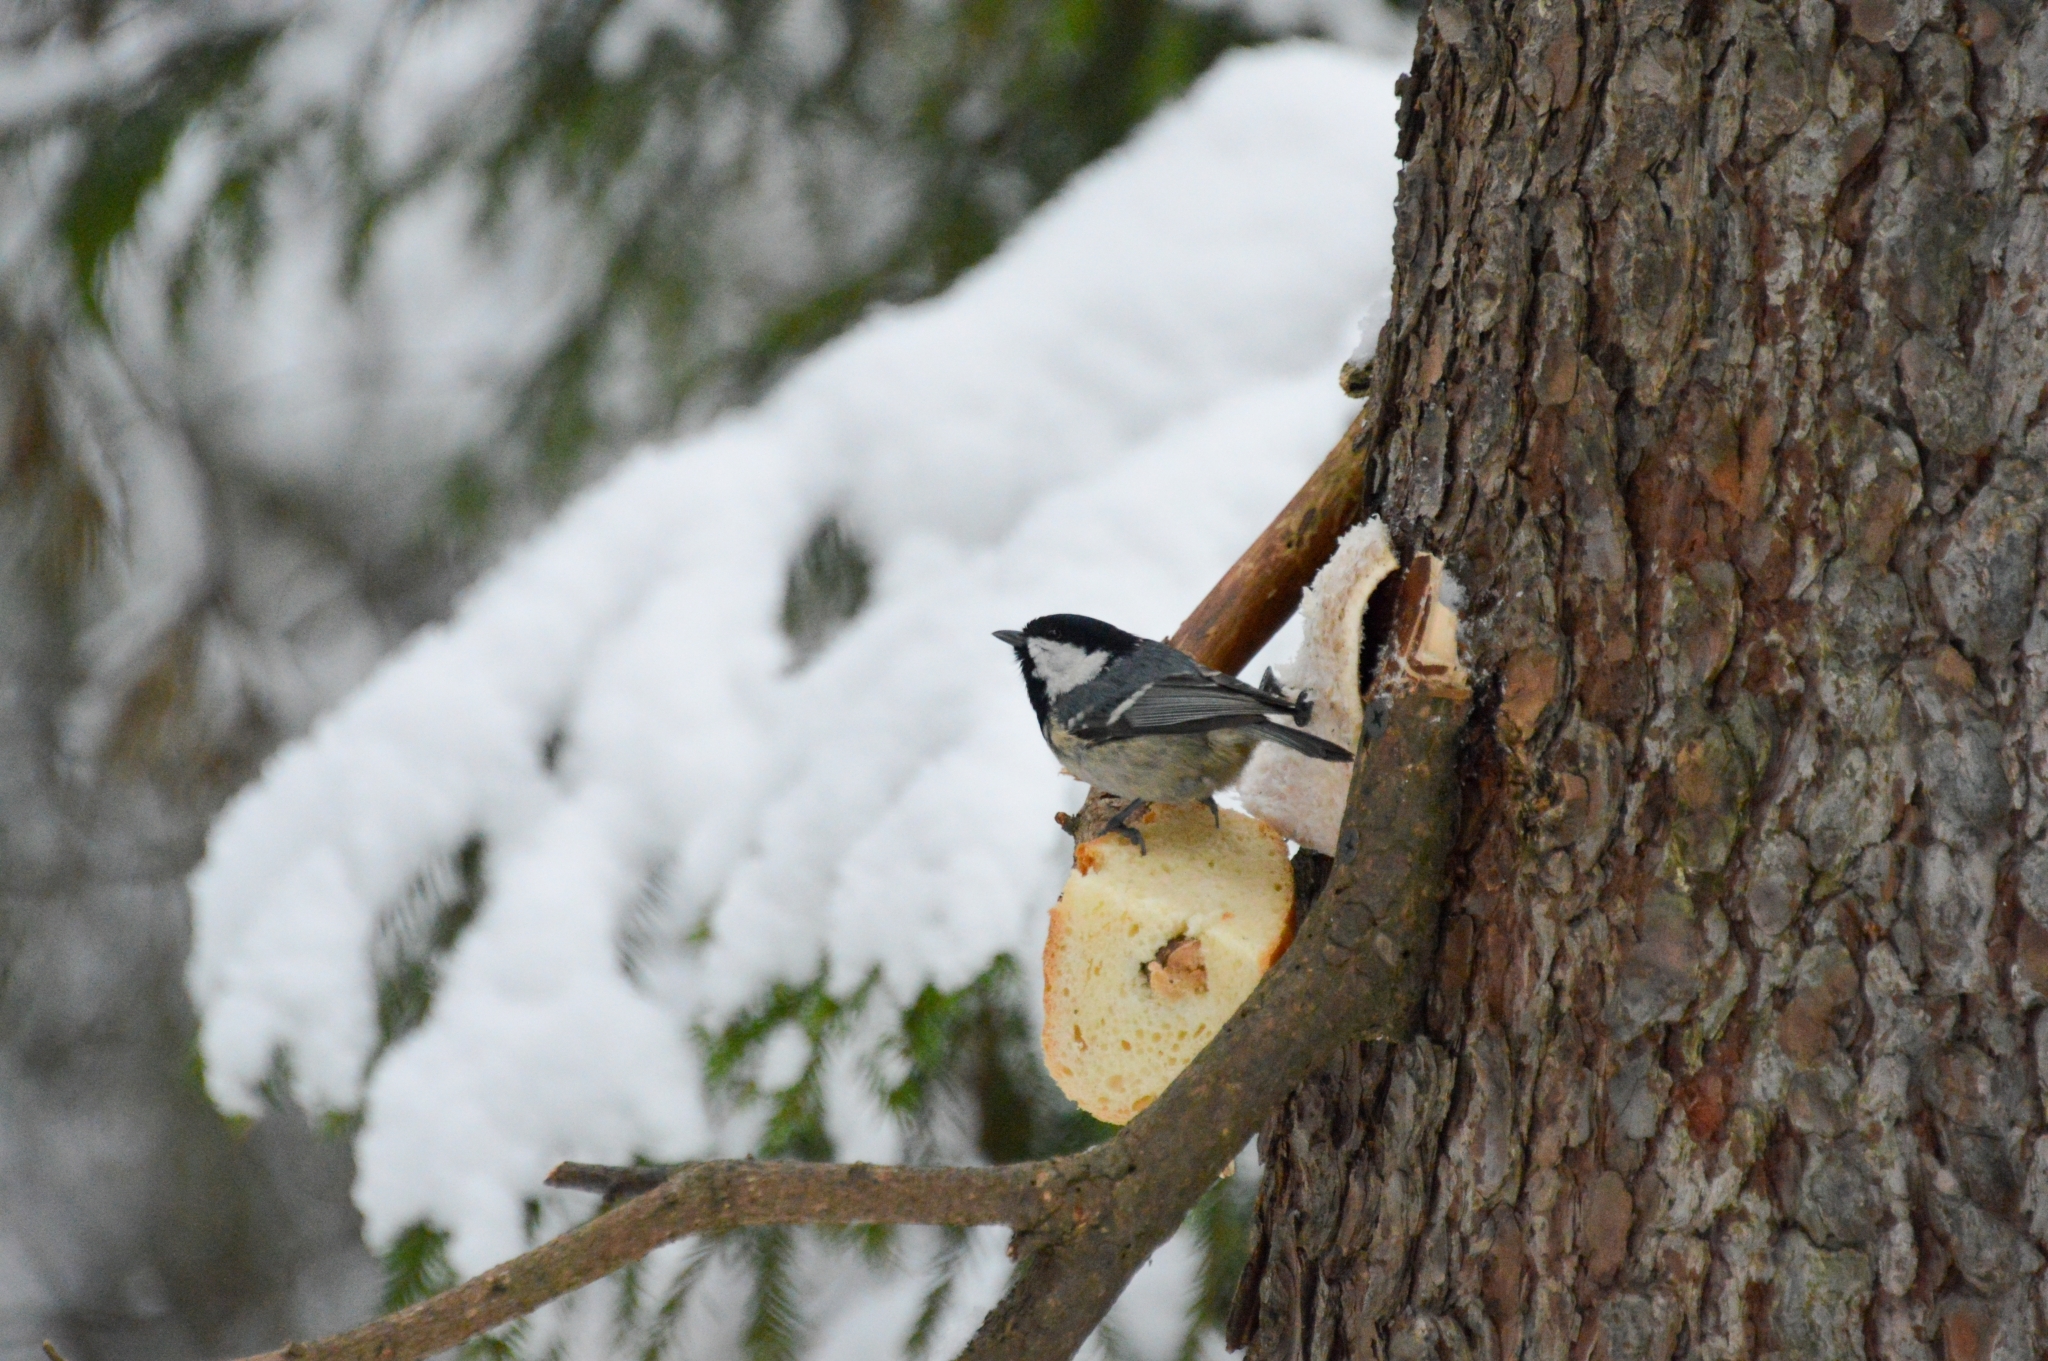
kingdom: Animalia
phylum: Chordata
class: Aves
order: Passeriformes
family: Paridae
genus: Periparus
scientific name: Periparus ater
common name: Coal tit
